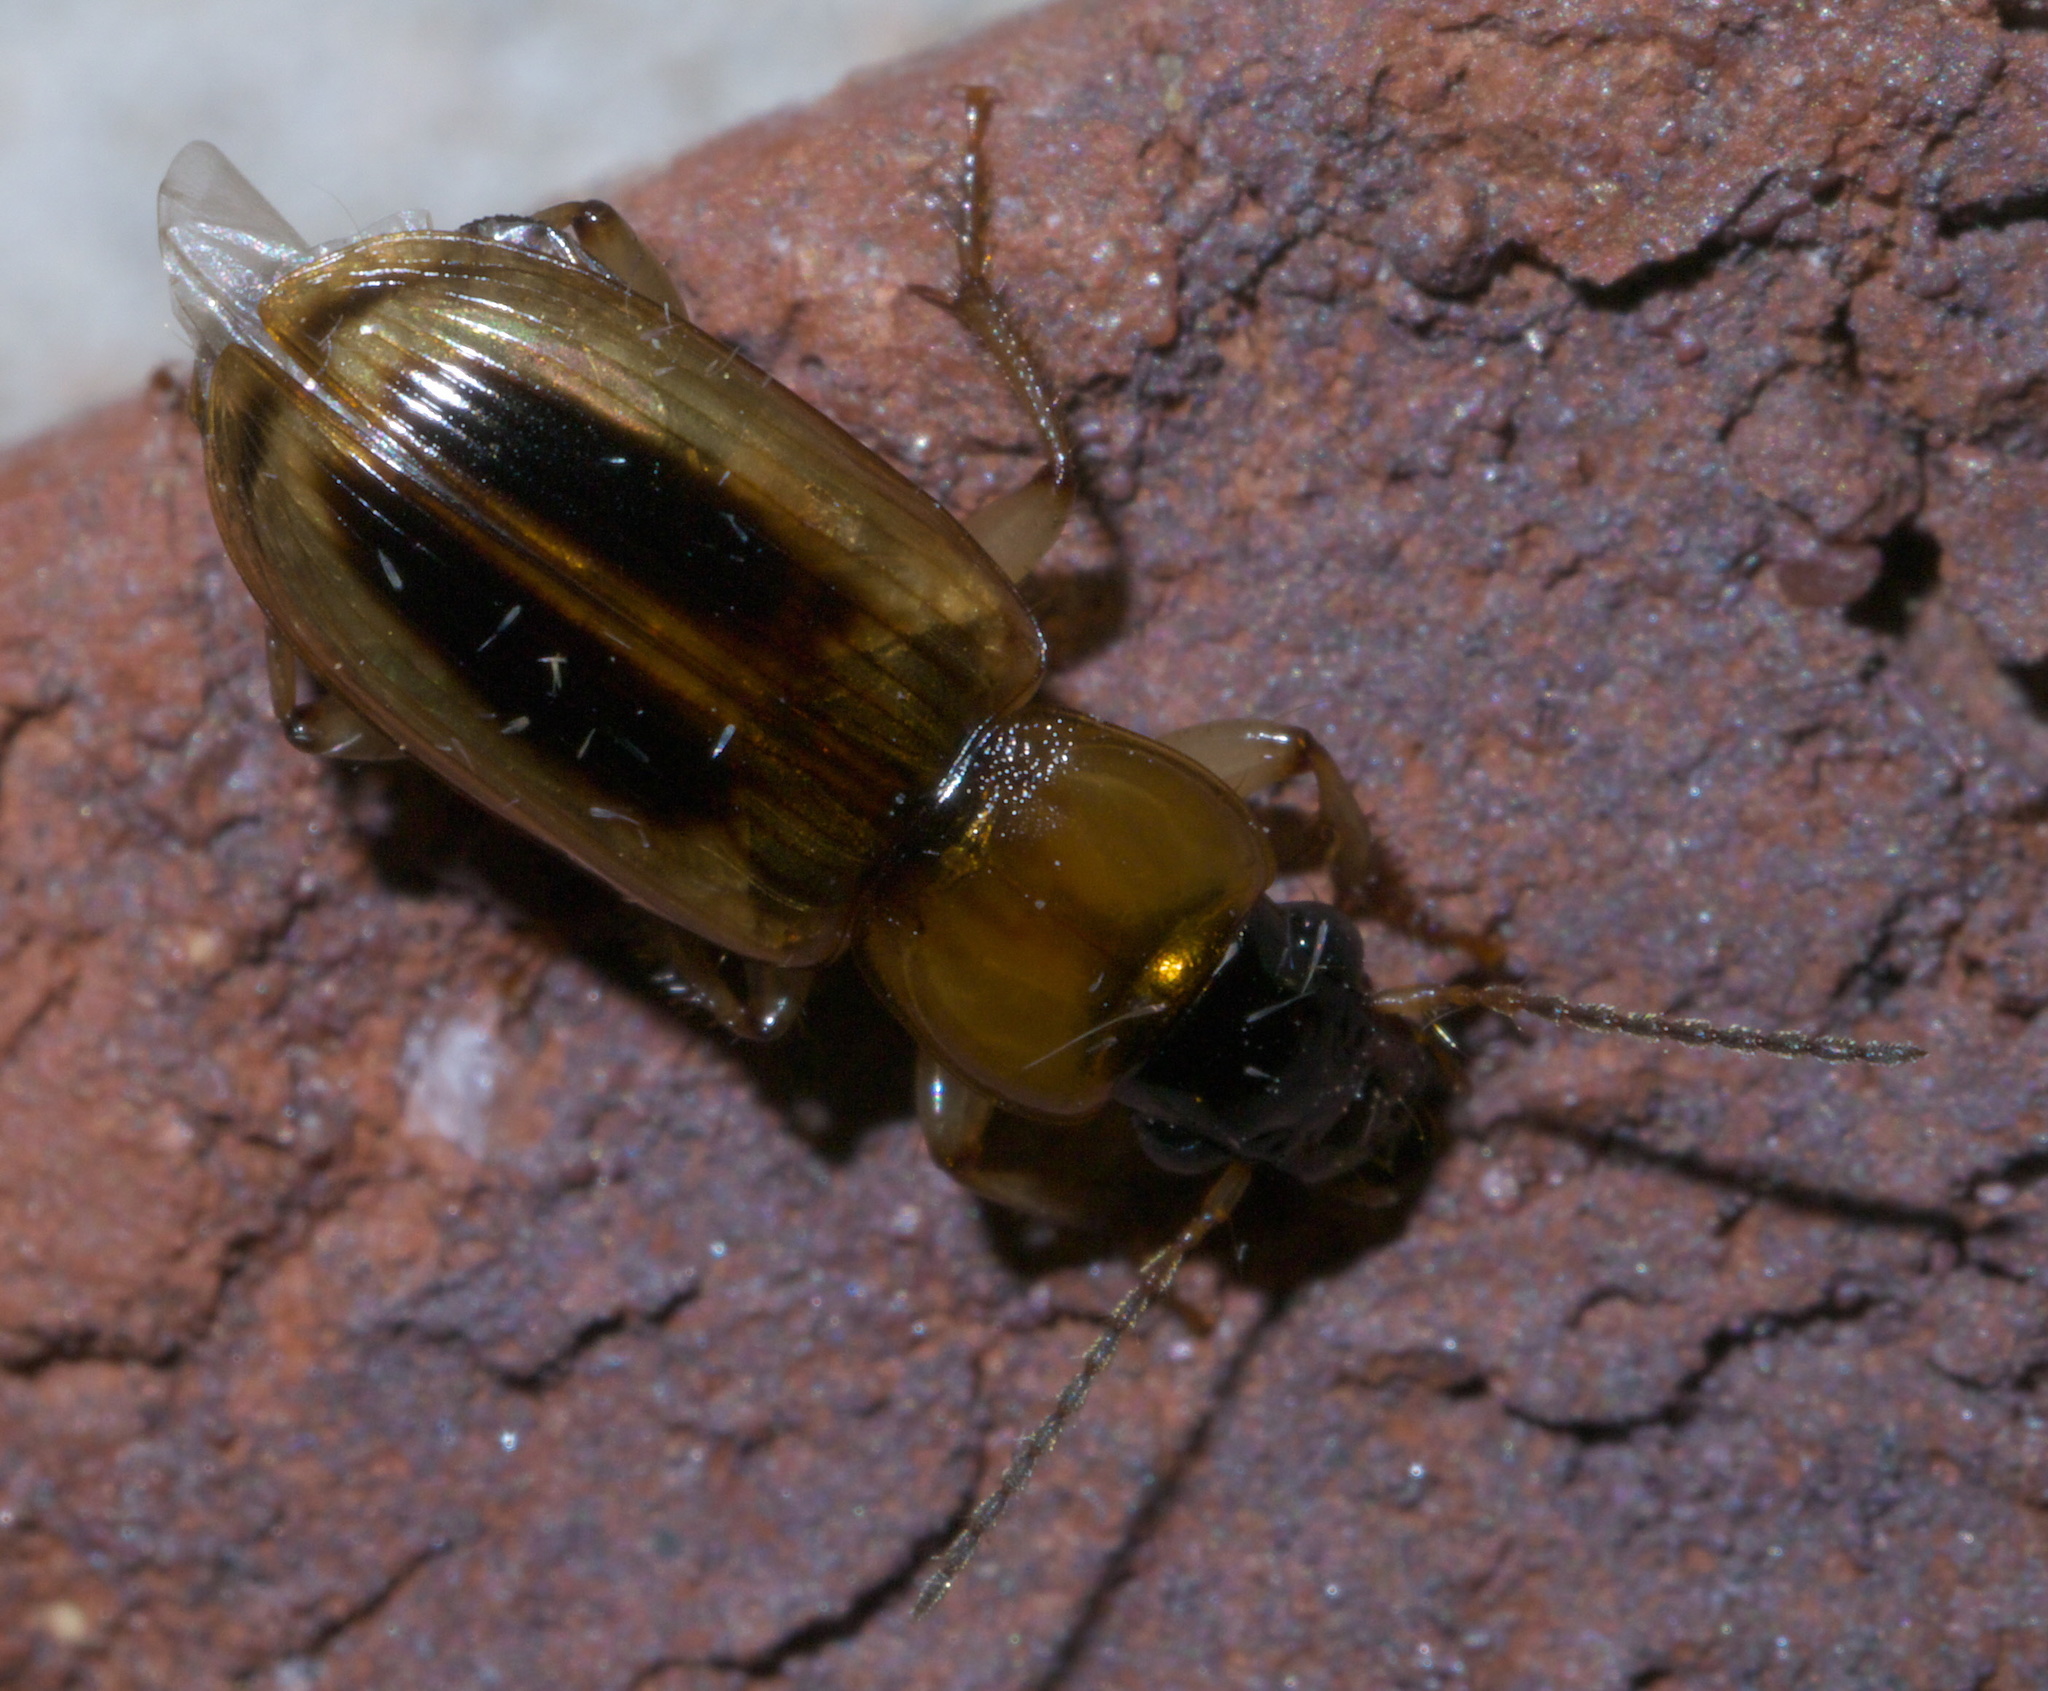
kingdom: Animalia
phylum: Arthropoda
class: Insecta
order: Coleoptera
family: Carabidae
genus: Stenolophus
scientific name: Stenolophus comma
